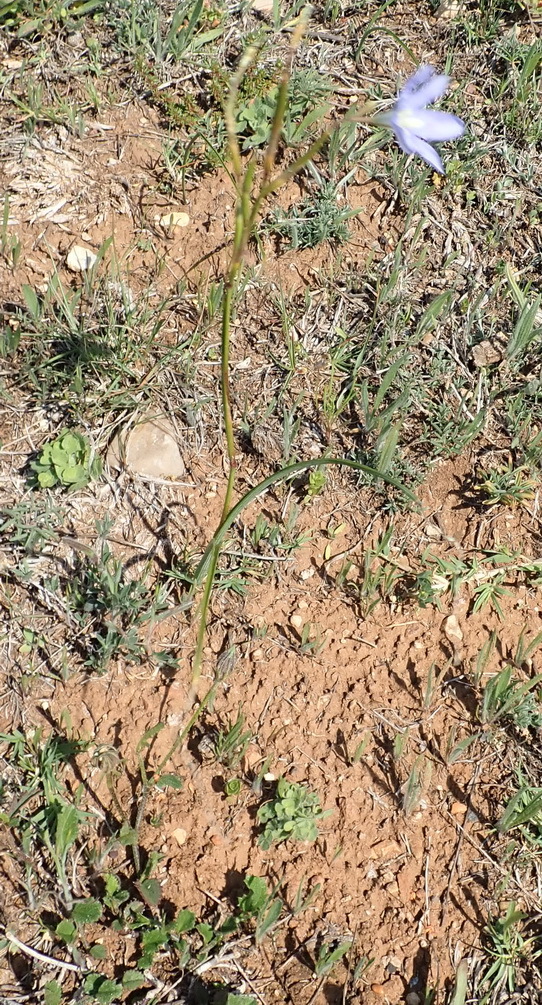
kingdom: Plantae
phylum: Tracheophyta
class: Liliopsida
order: Asparagales
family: Iridaceae
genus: Moraea
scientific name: Moraea polyanthos
